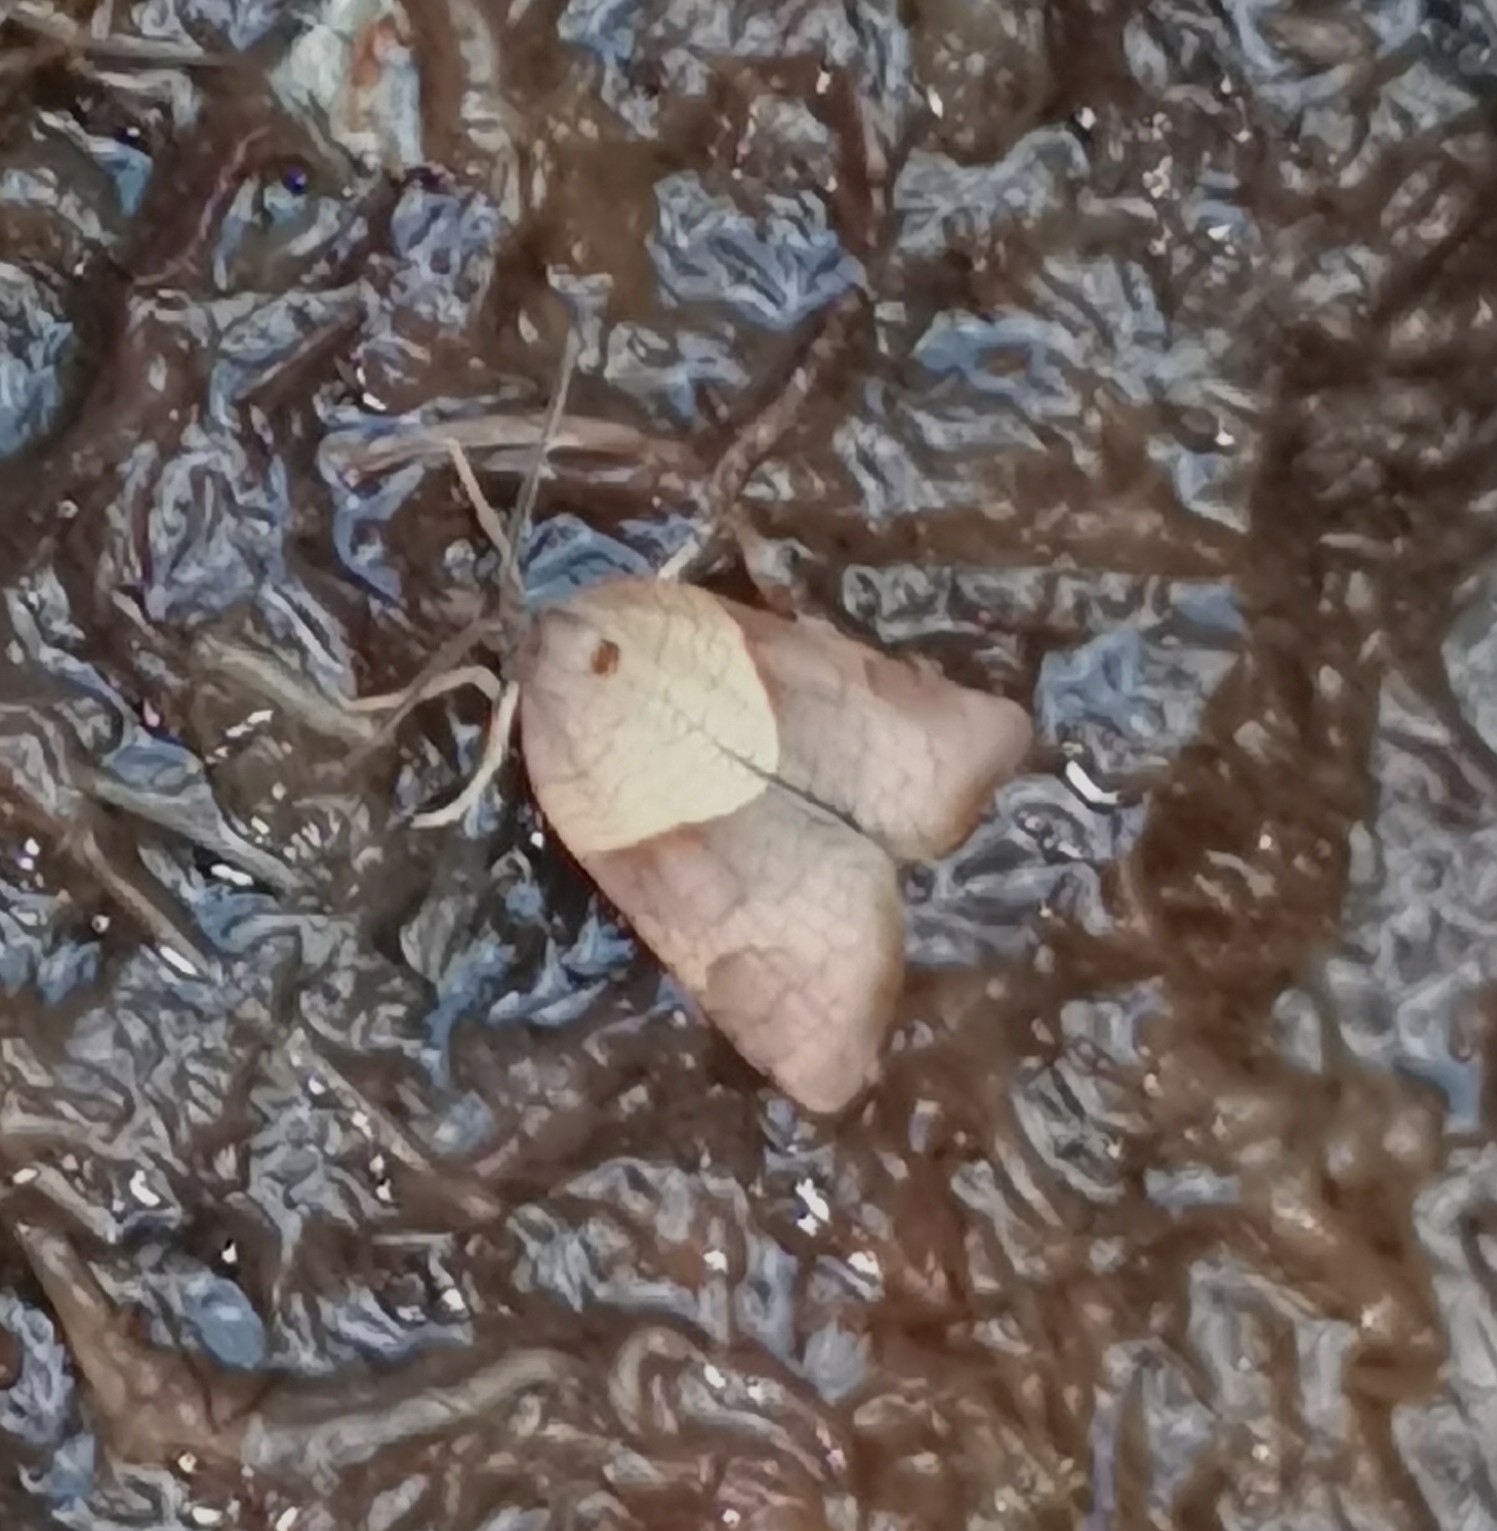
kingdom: Animalia
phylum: Arthropoda
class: Insecta
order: Lepidoptera
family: Tortricidae
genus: Philedone
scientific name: Philedone gerningana
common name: Cinquefoil twist
